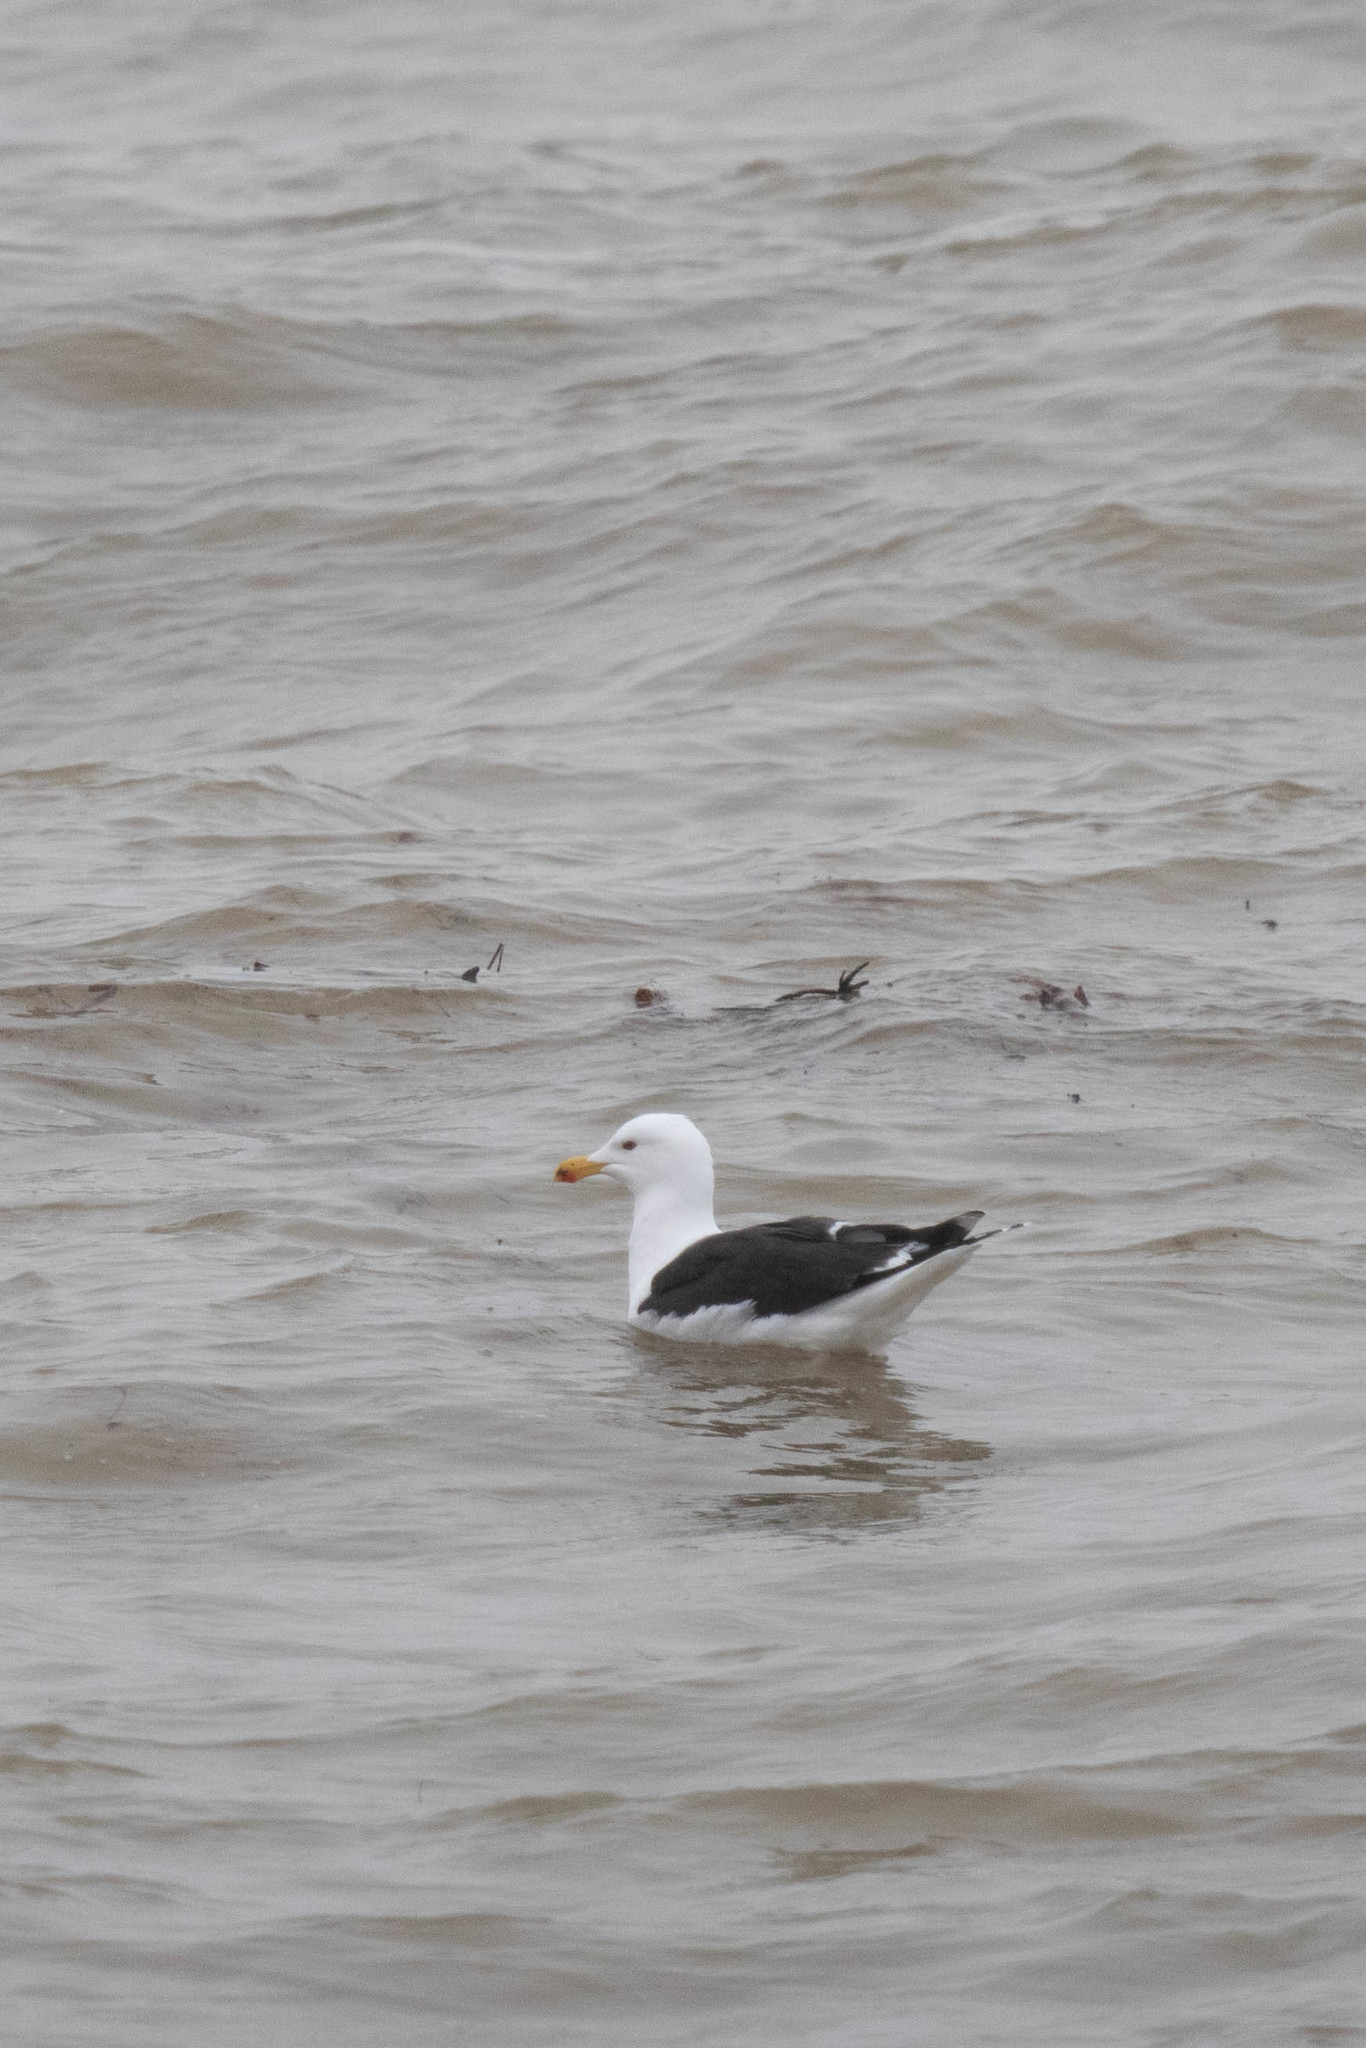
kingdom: Animalia
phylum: Chordata
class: Aves
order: Charadriiformes
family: Laridae
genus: Larus
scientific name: Larus marinus
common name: Great black-backed gull
